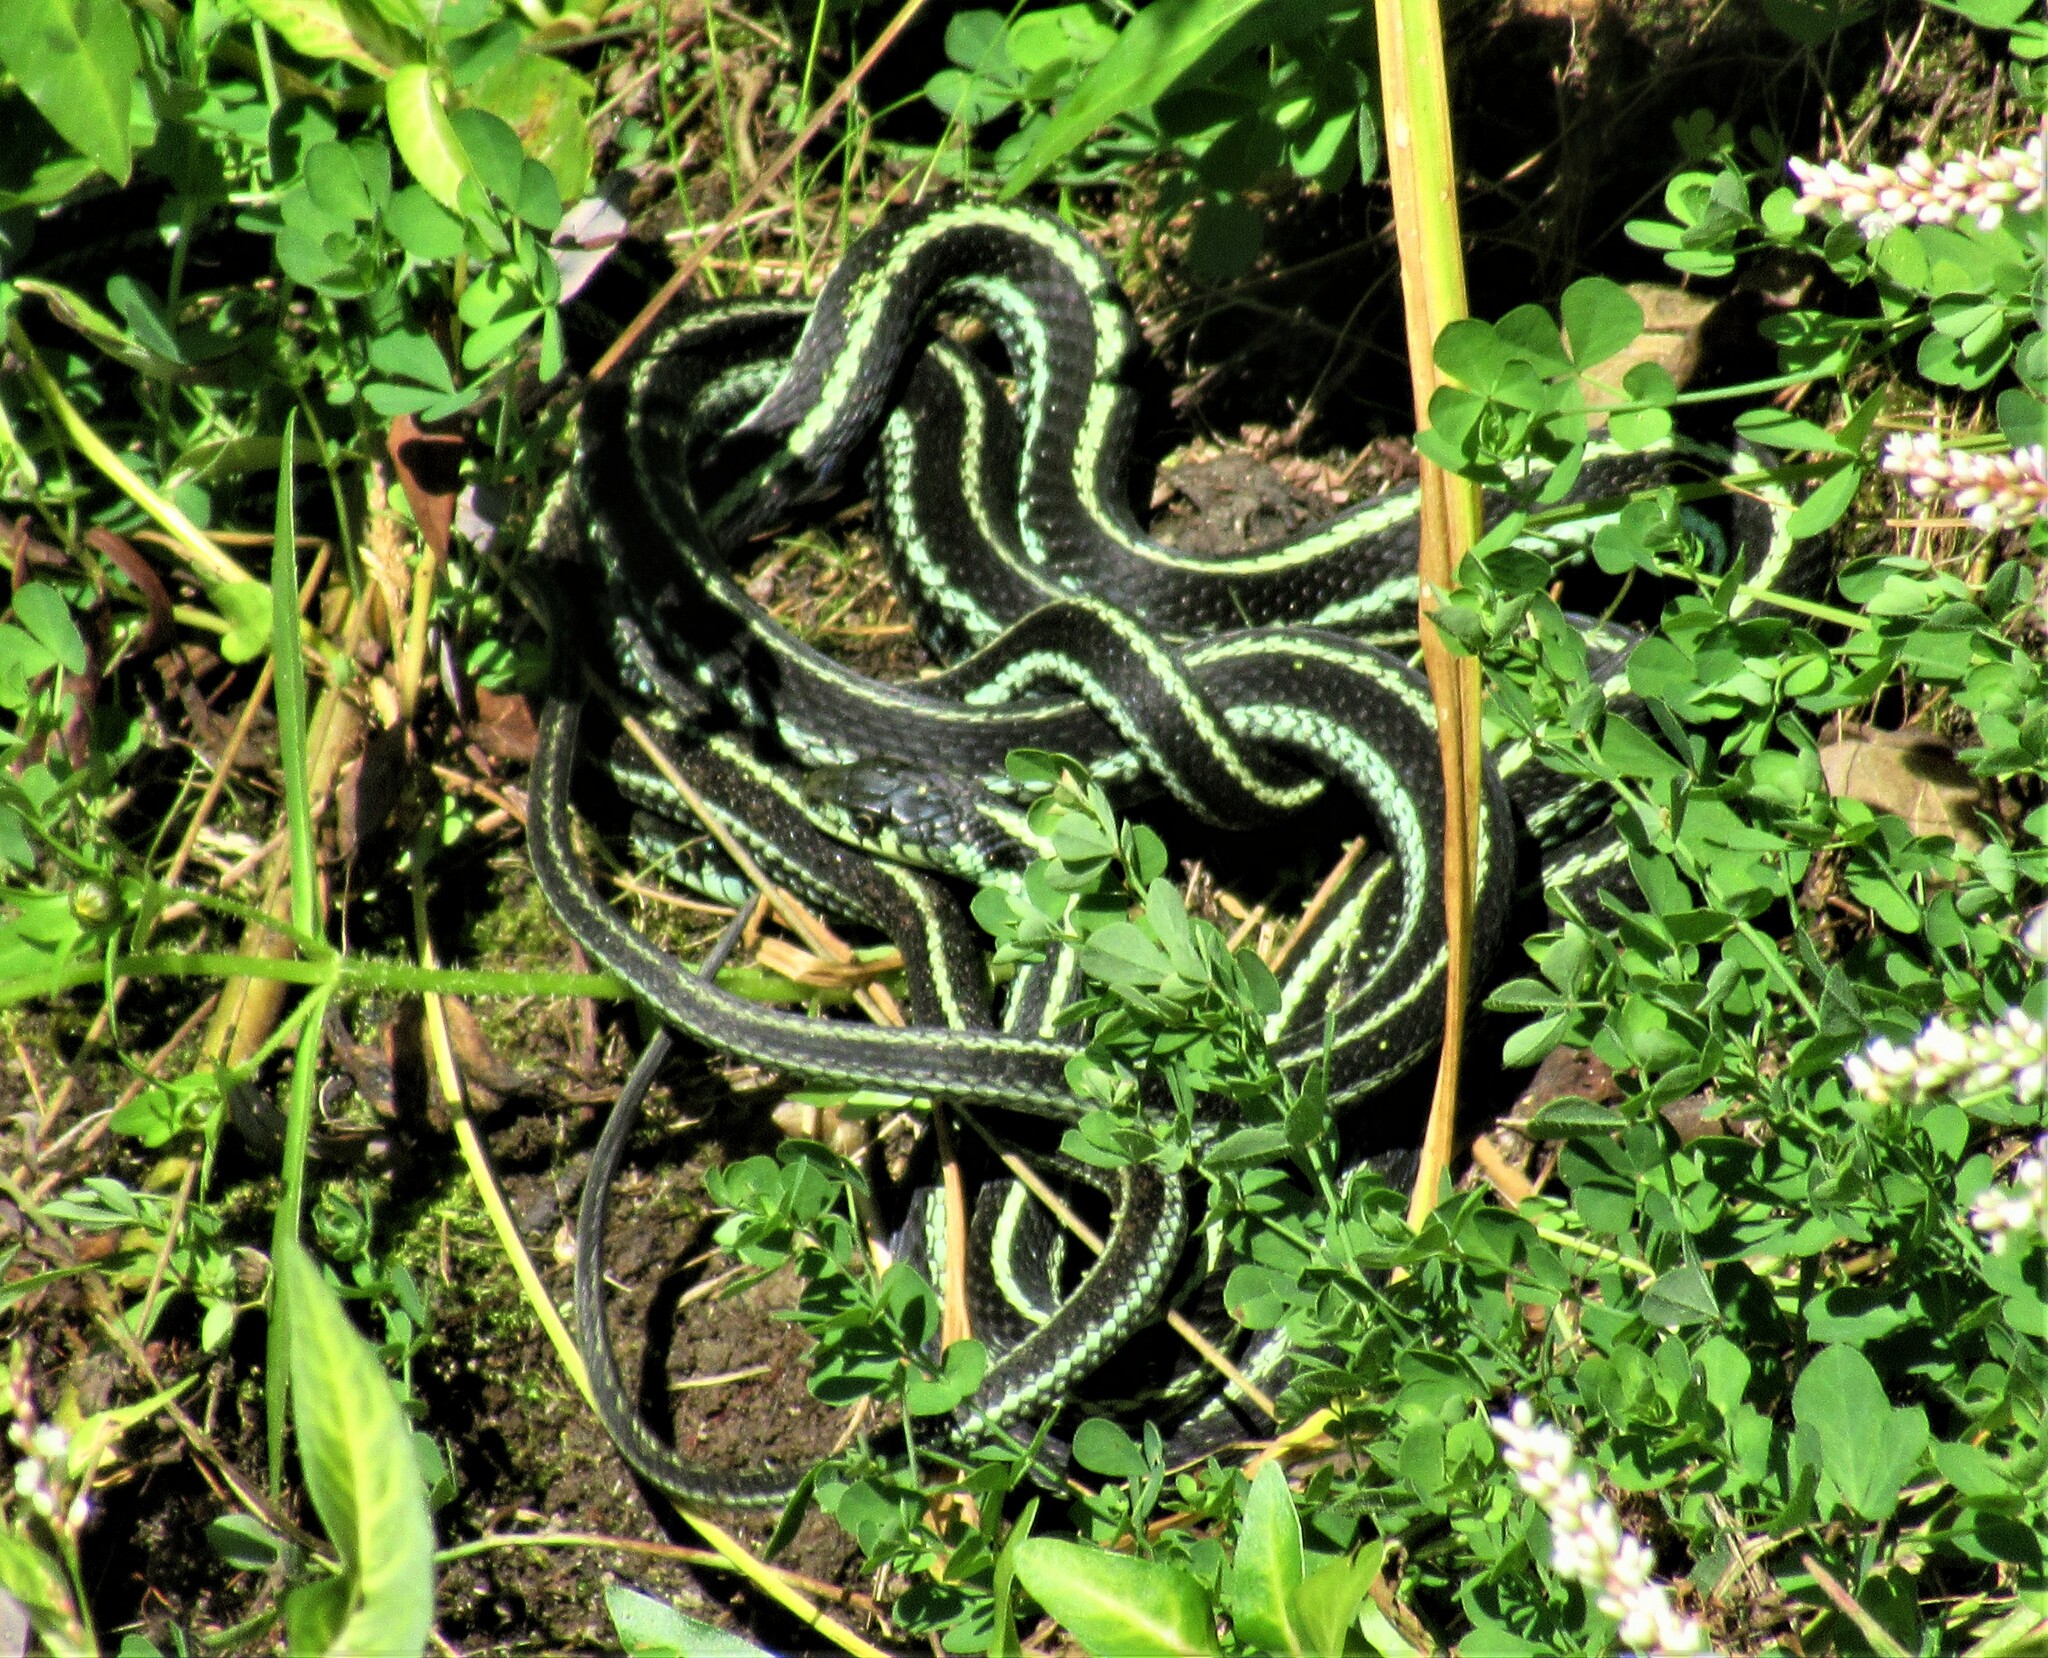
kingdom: Animalia
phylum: Chordata
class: Squamata
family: Colubridae
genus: Thamnophis
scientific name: Thamnophis sirtalis
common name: Common garter snake
